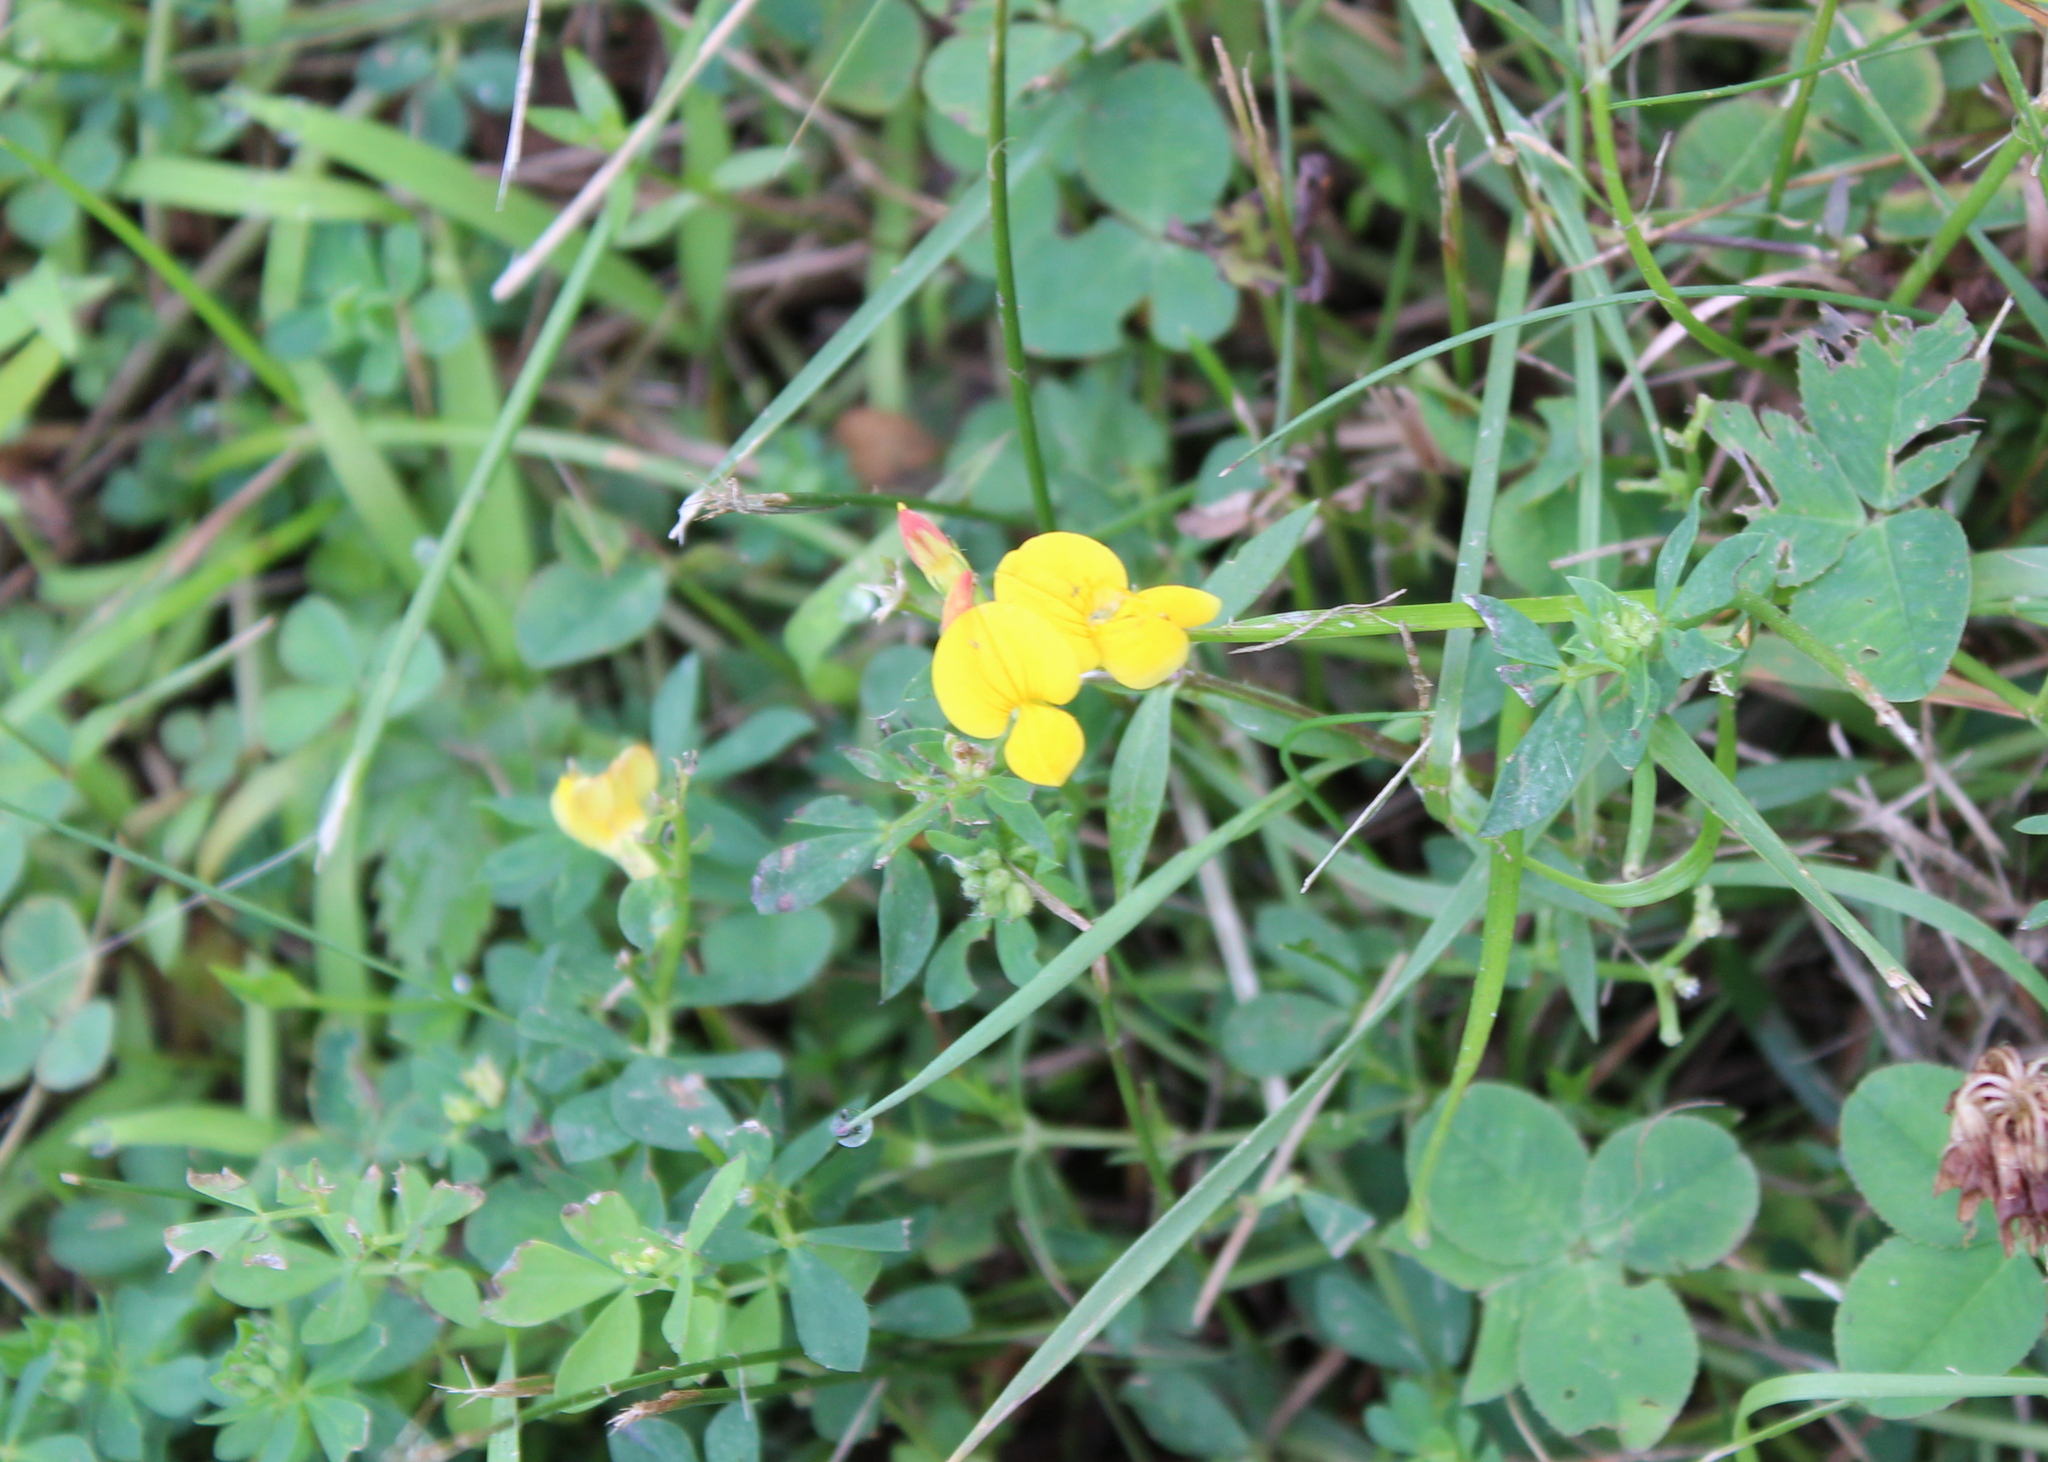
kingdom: Plantae
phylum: Tracheophyta
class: Magnoliopsida
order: Fabales
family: Fabaceae
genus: Lotus
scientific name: Lotus corniculatus
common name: Common bird's-foot-trefoil
